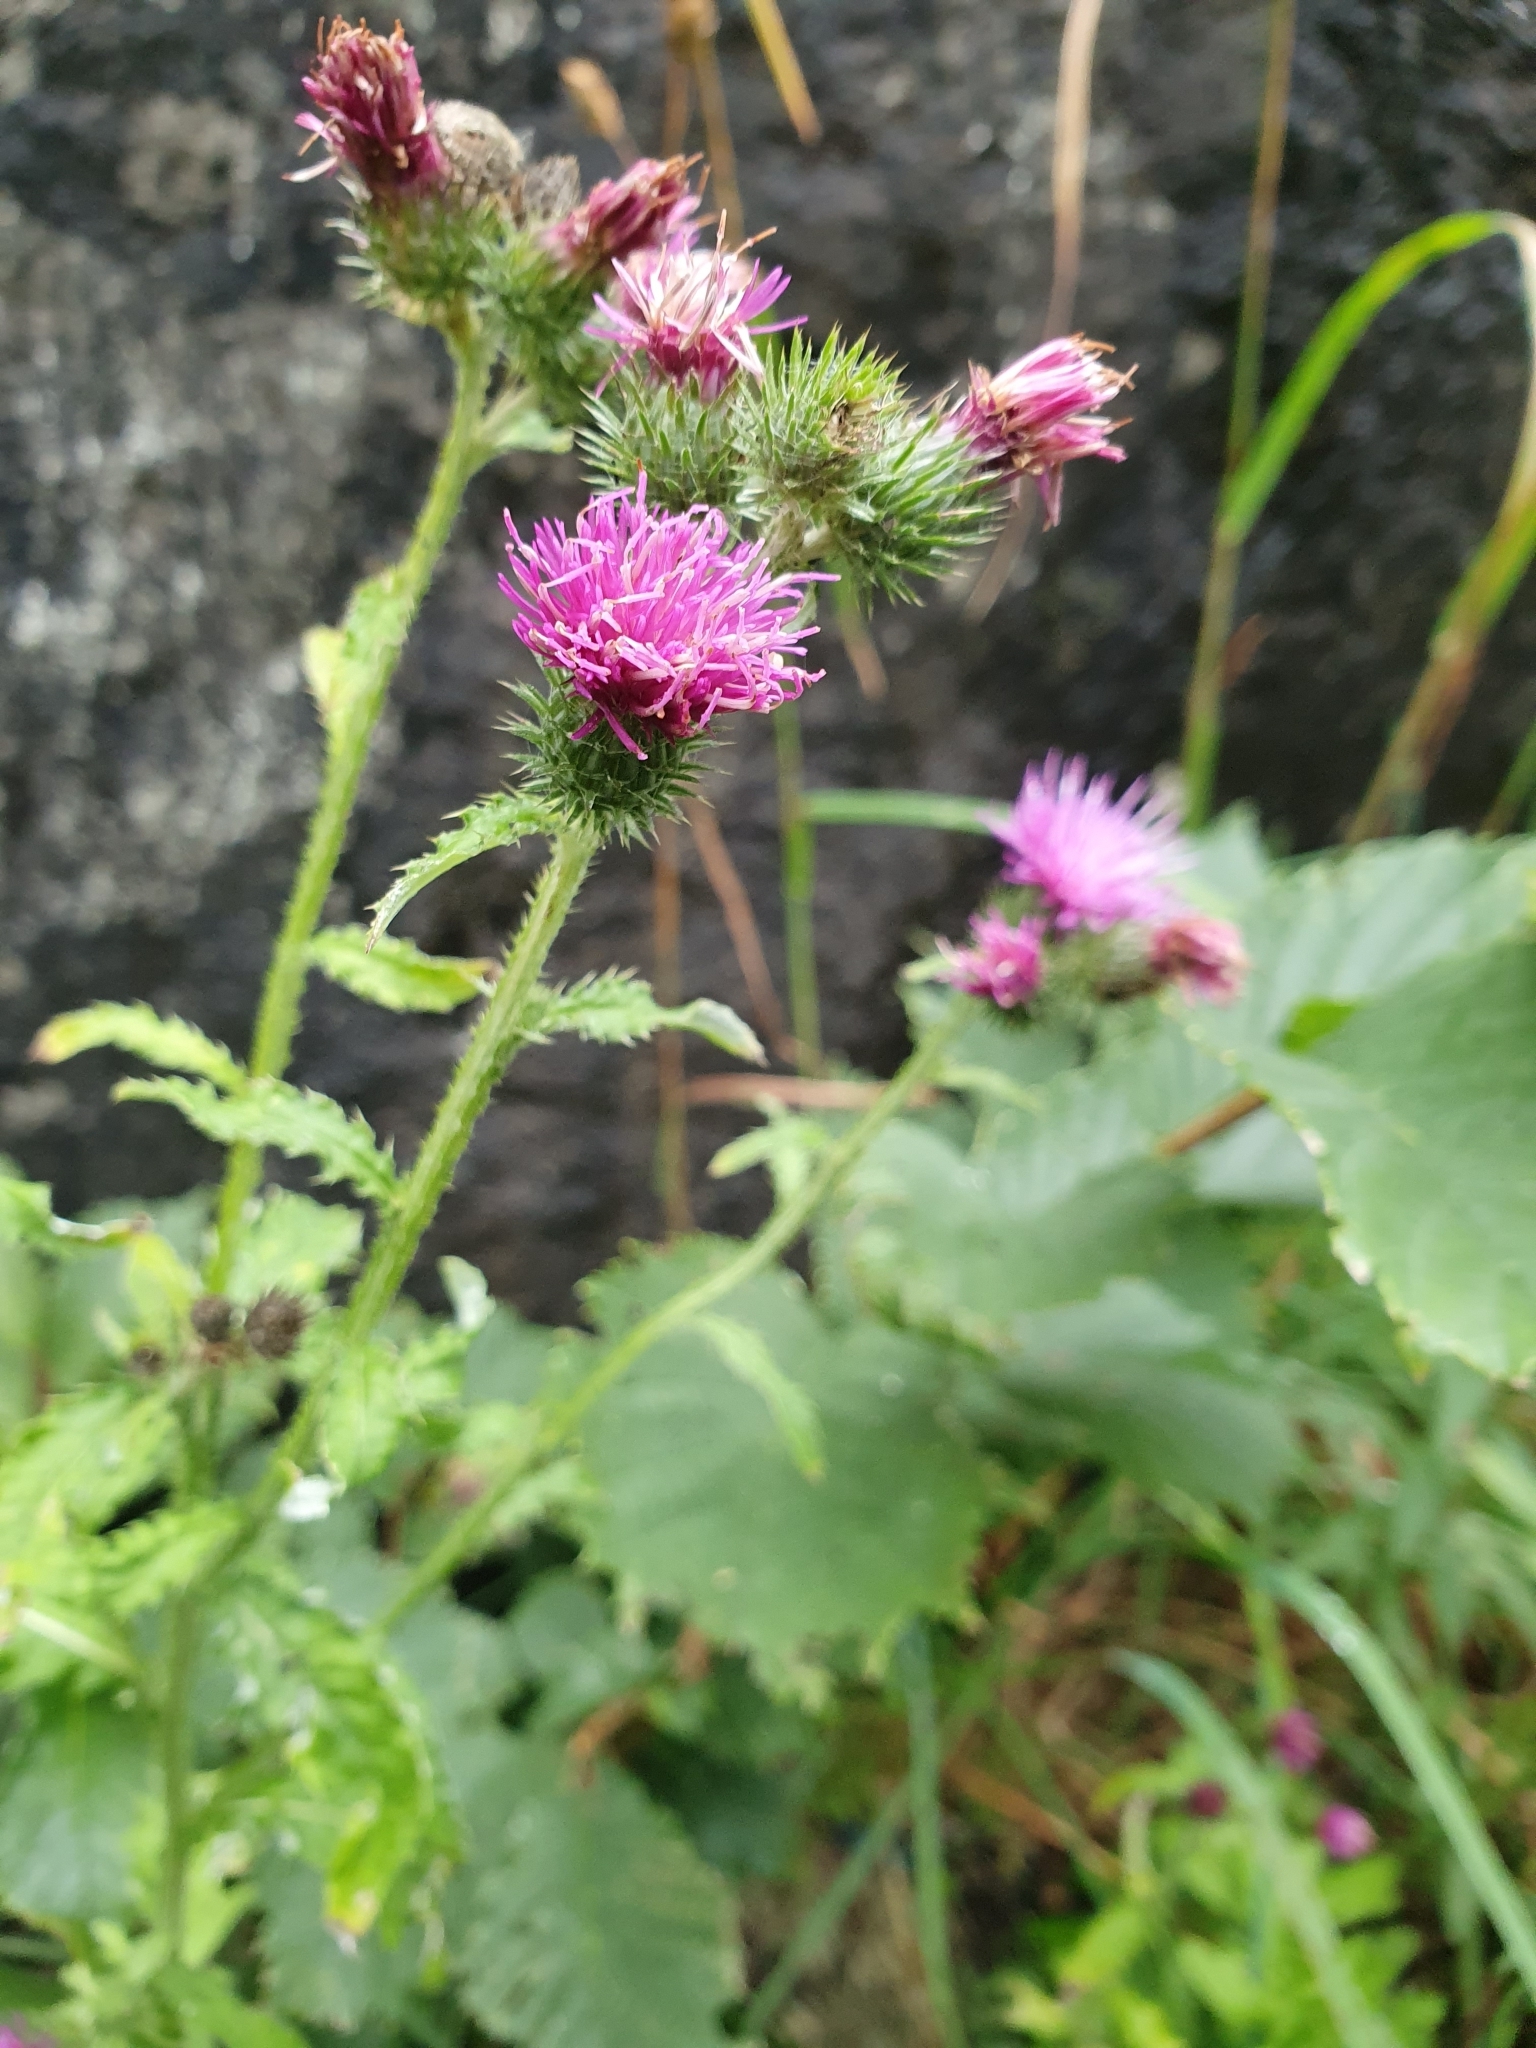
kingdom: Plantae
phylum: Tracheophyta
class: Magnoliopsida
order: Asterales
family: Asteraceae
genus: Carduus
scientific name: Carduus crispus
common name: Welted thistle
